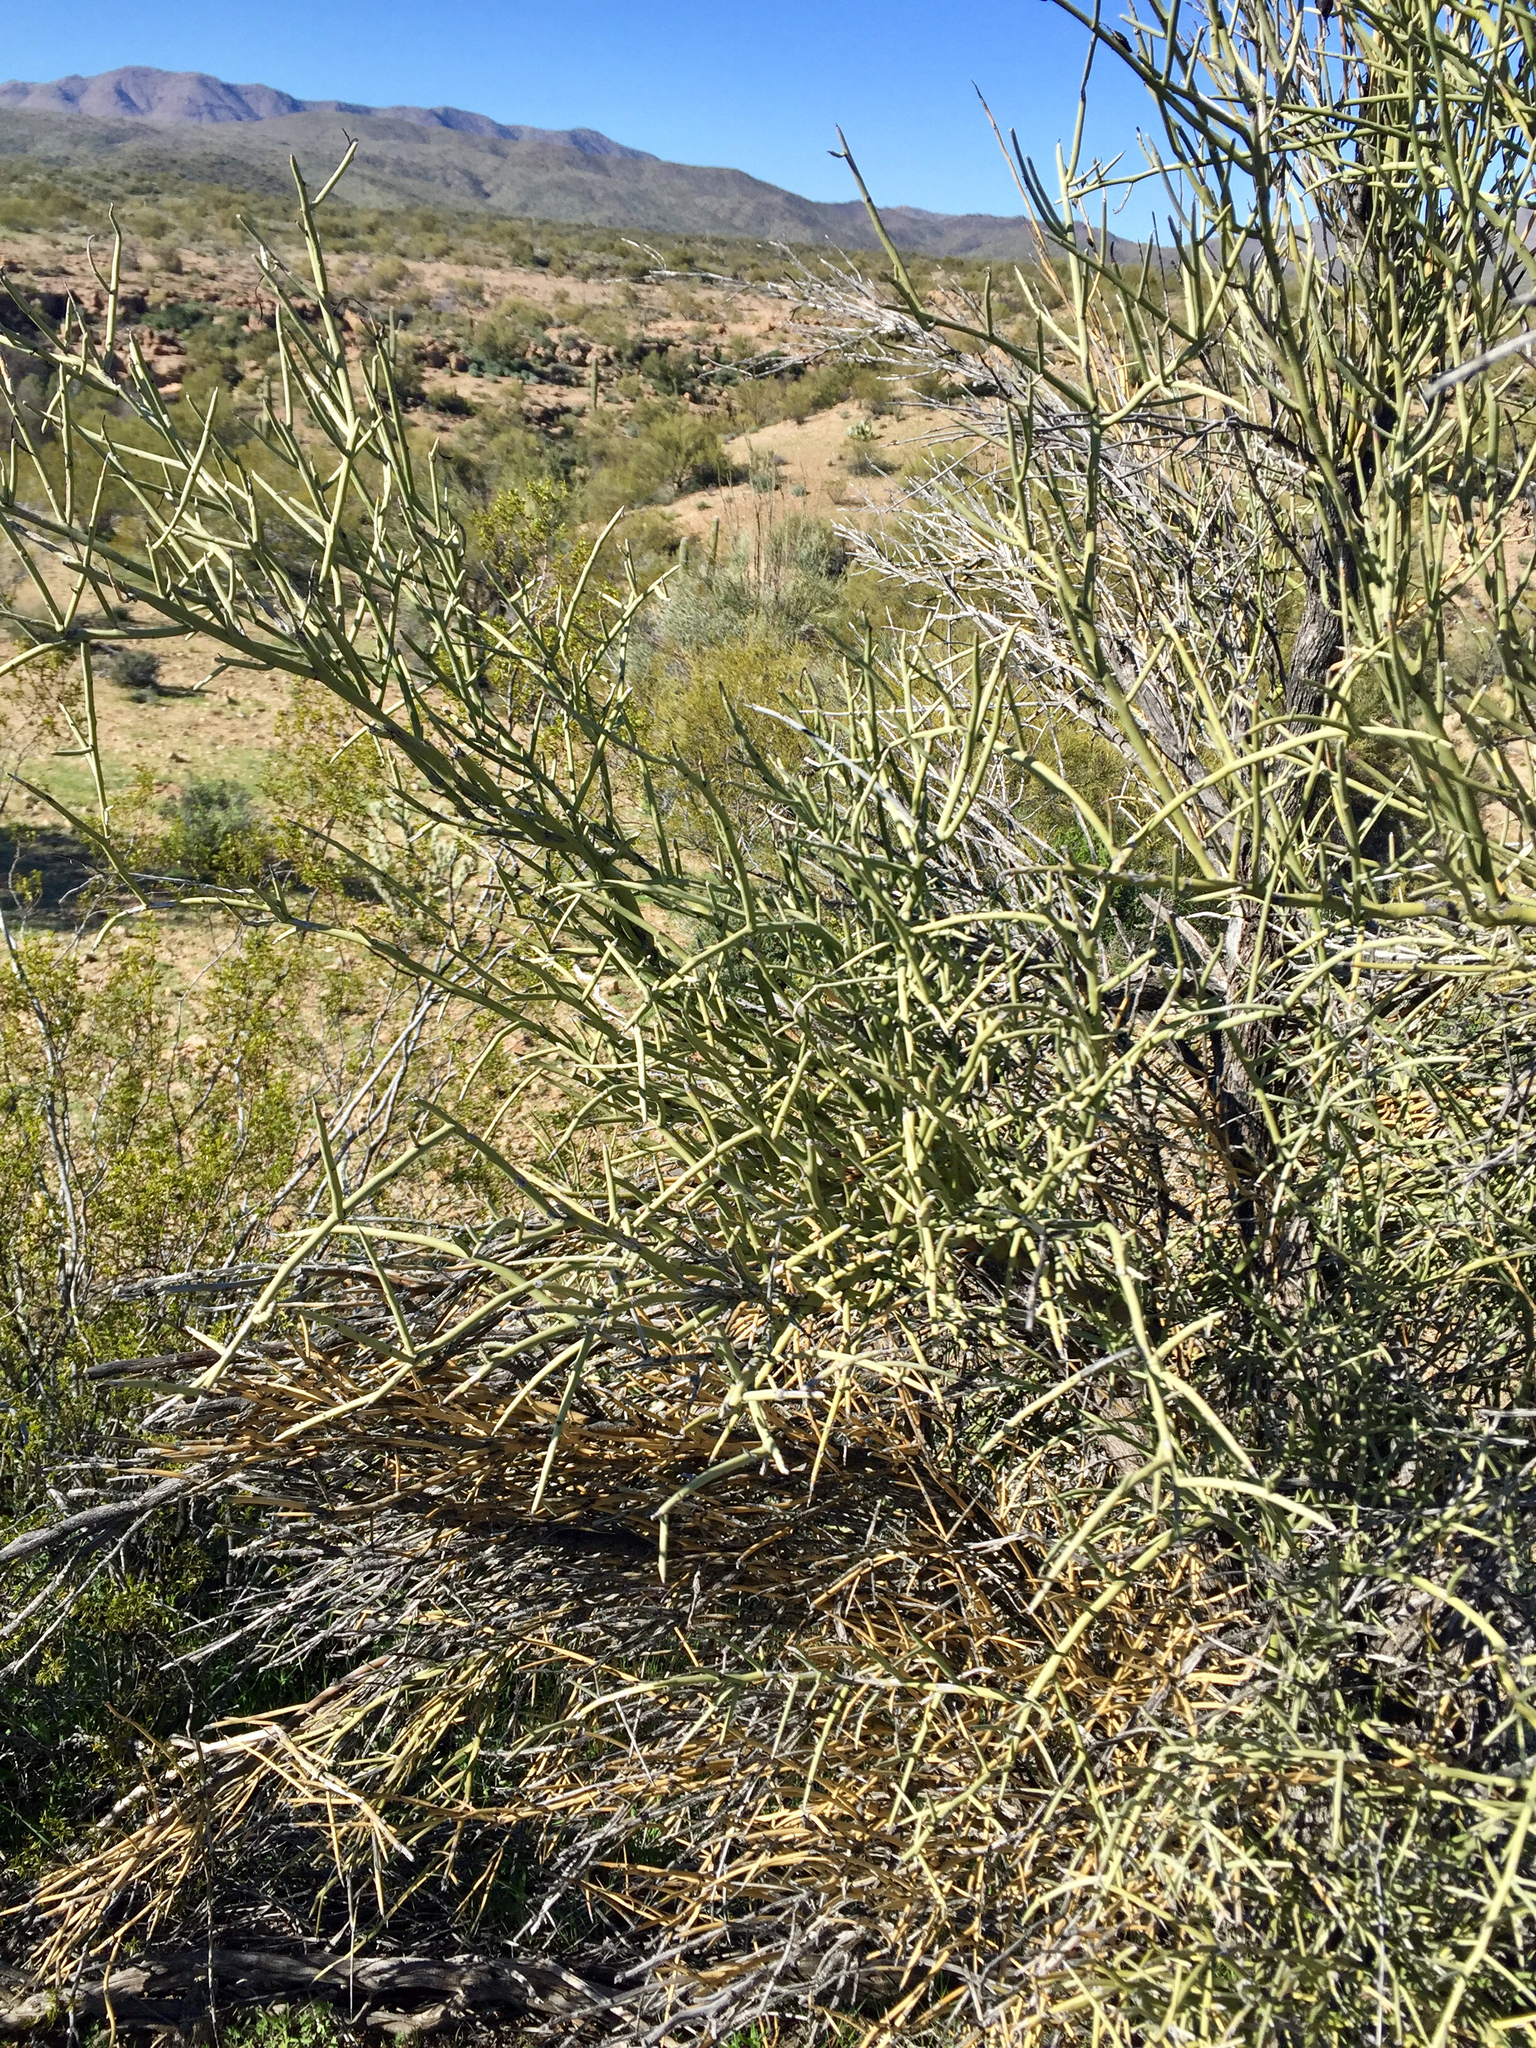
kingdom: Plantae
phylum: Tracheophyta
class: Magnoliopsida
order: Celastrales
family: Celastraceae
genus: Canotia
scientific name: Canotia holacantha
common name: Crucifixion thorns
